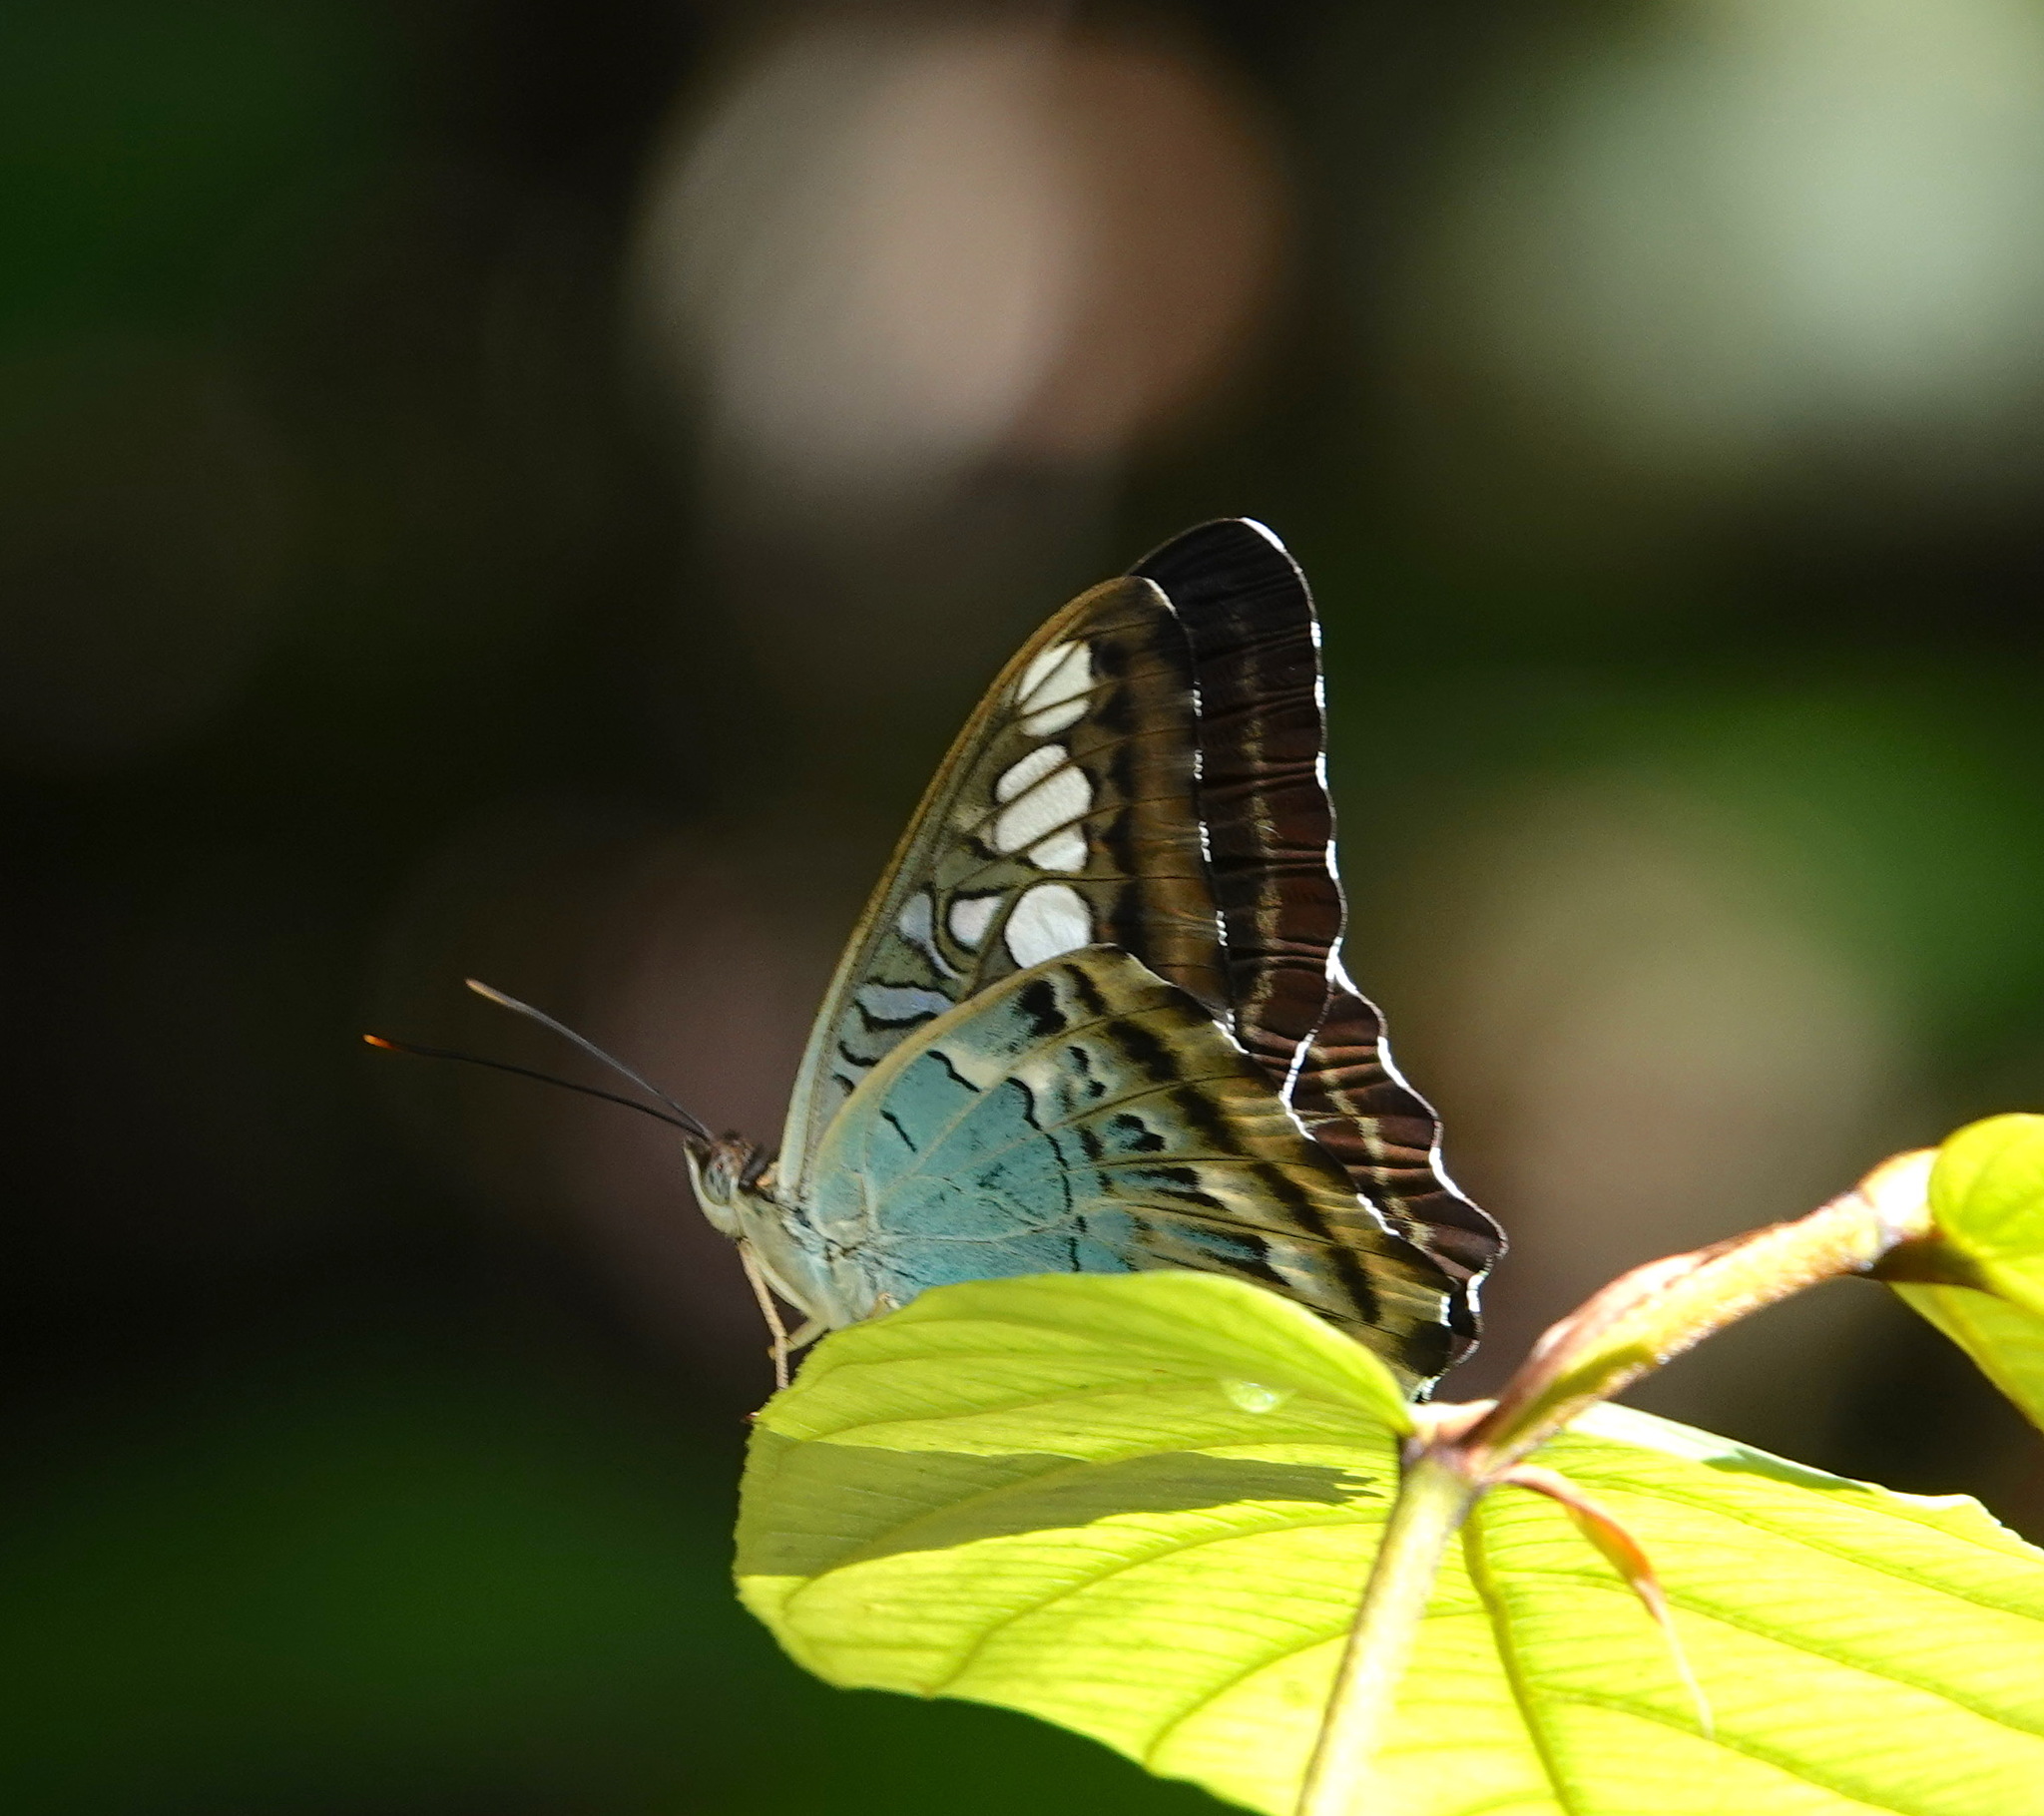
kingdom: Animalia
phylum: Arthropoda
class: Insecta
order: Lepidoptera
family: Nymphalidae
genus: Kallima
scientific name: Kallima sylvia
